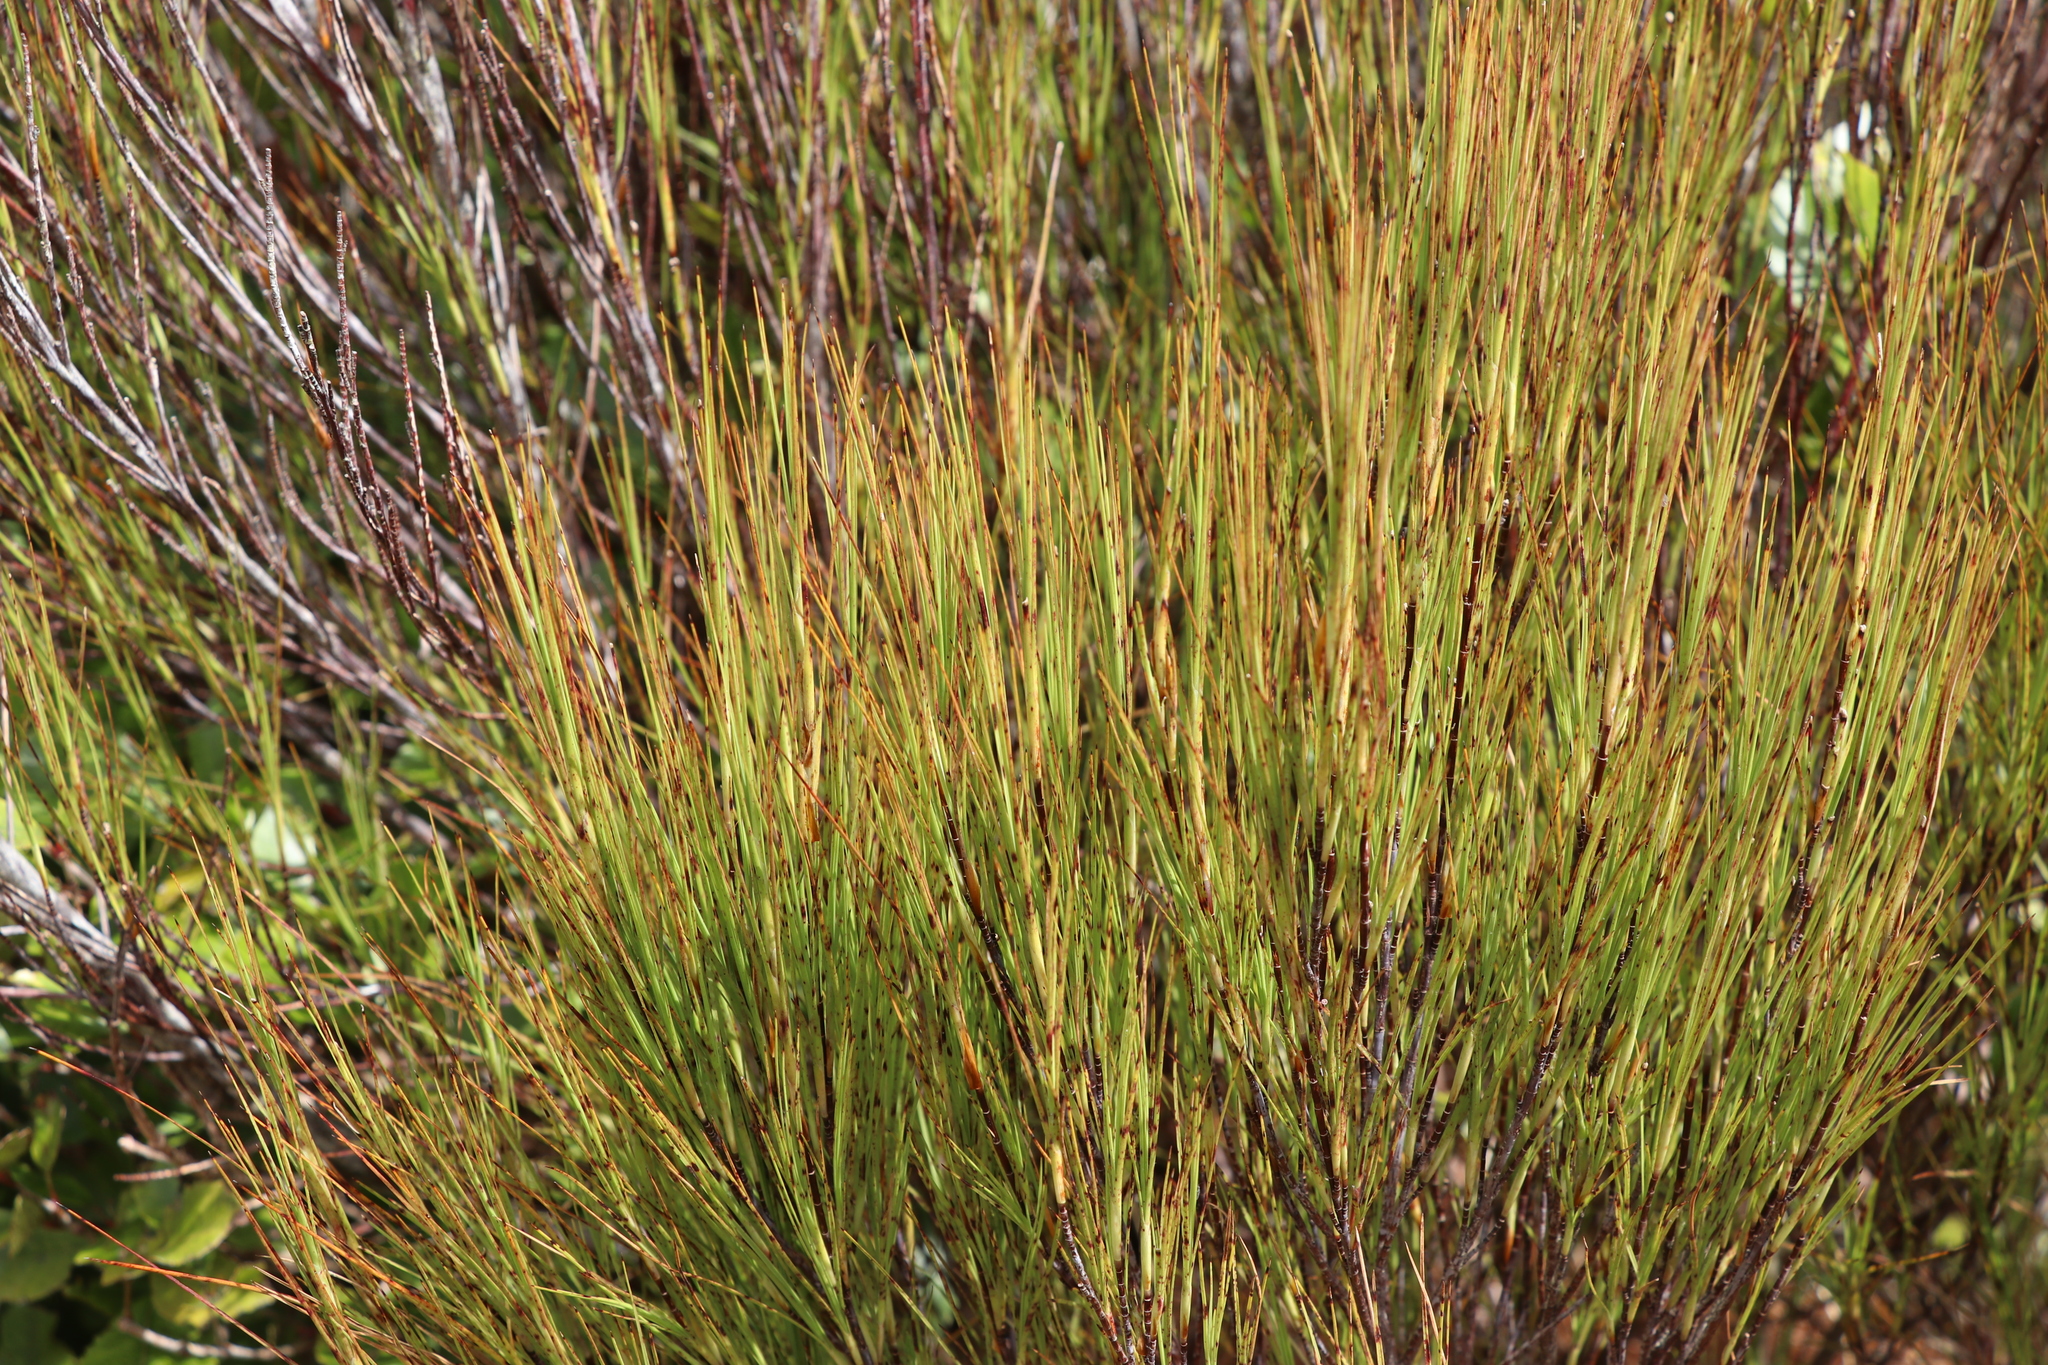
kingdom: Plantae
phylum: Tracheophyta
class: Magnoliopsida
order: Ericales
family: Ericaceae
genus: Dracophyllum
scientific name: Dracophyllum filifolium
